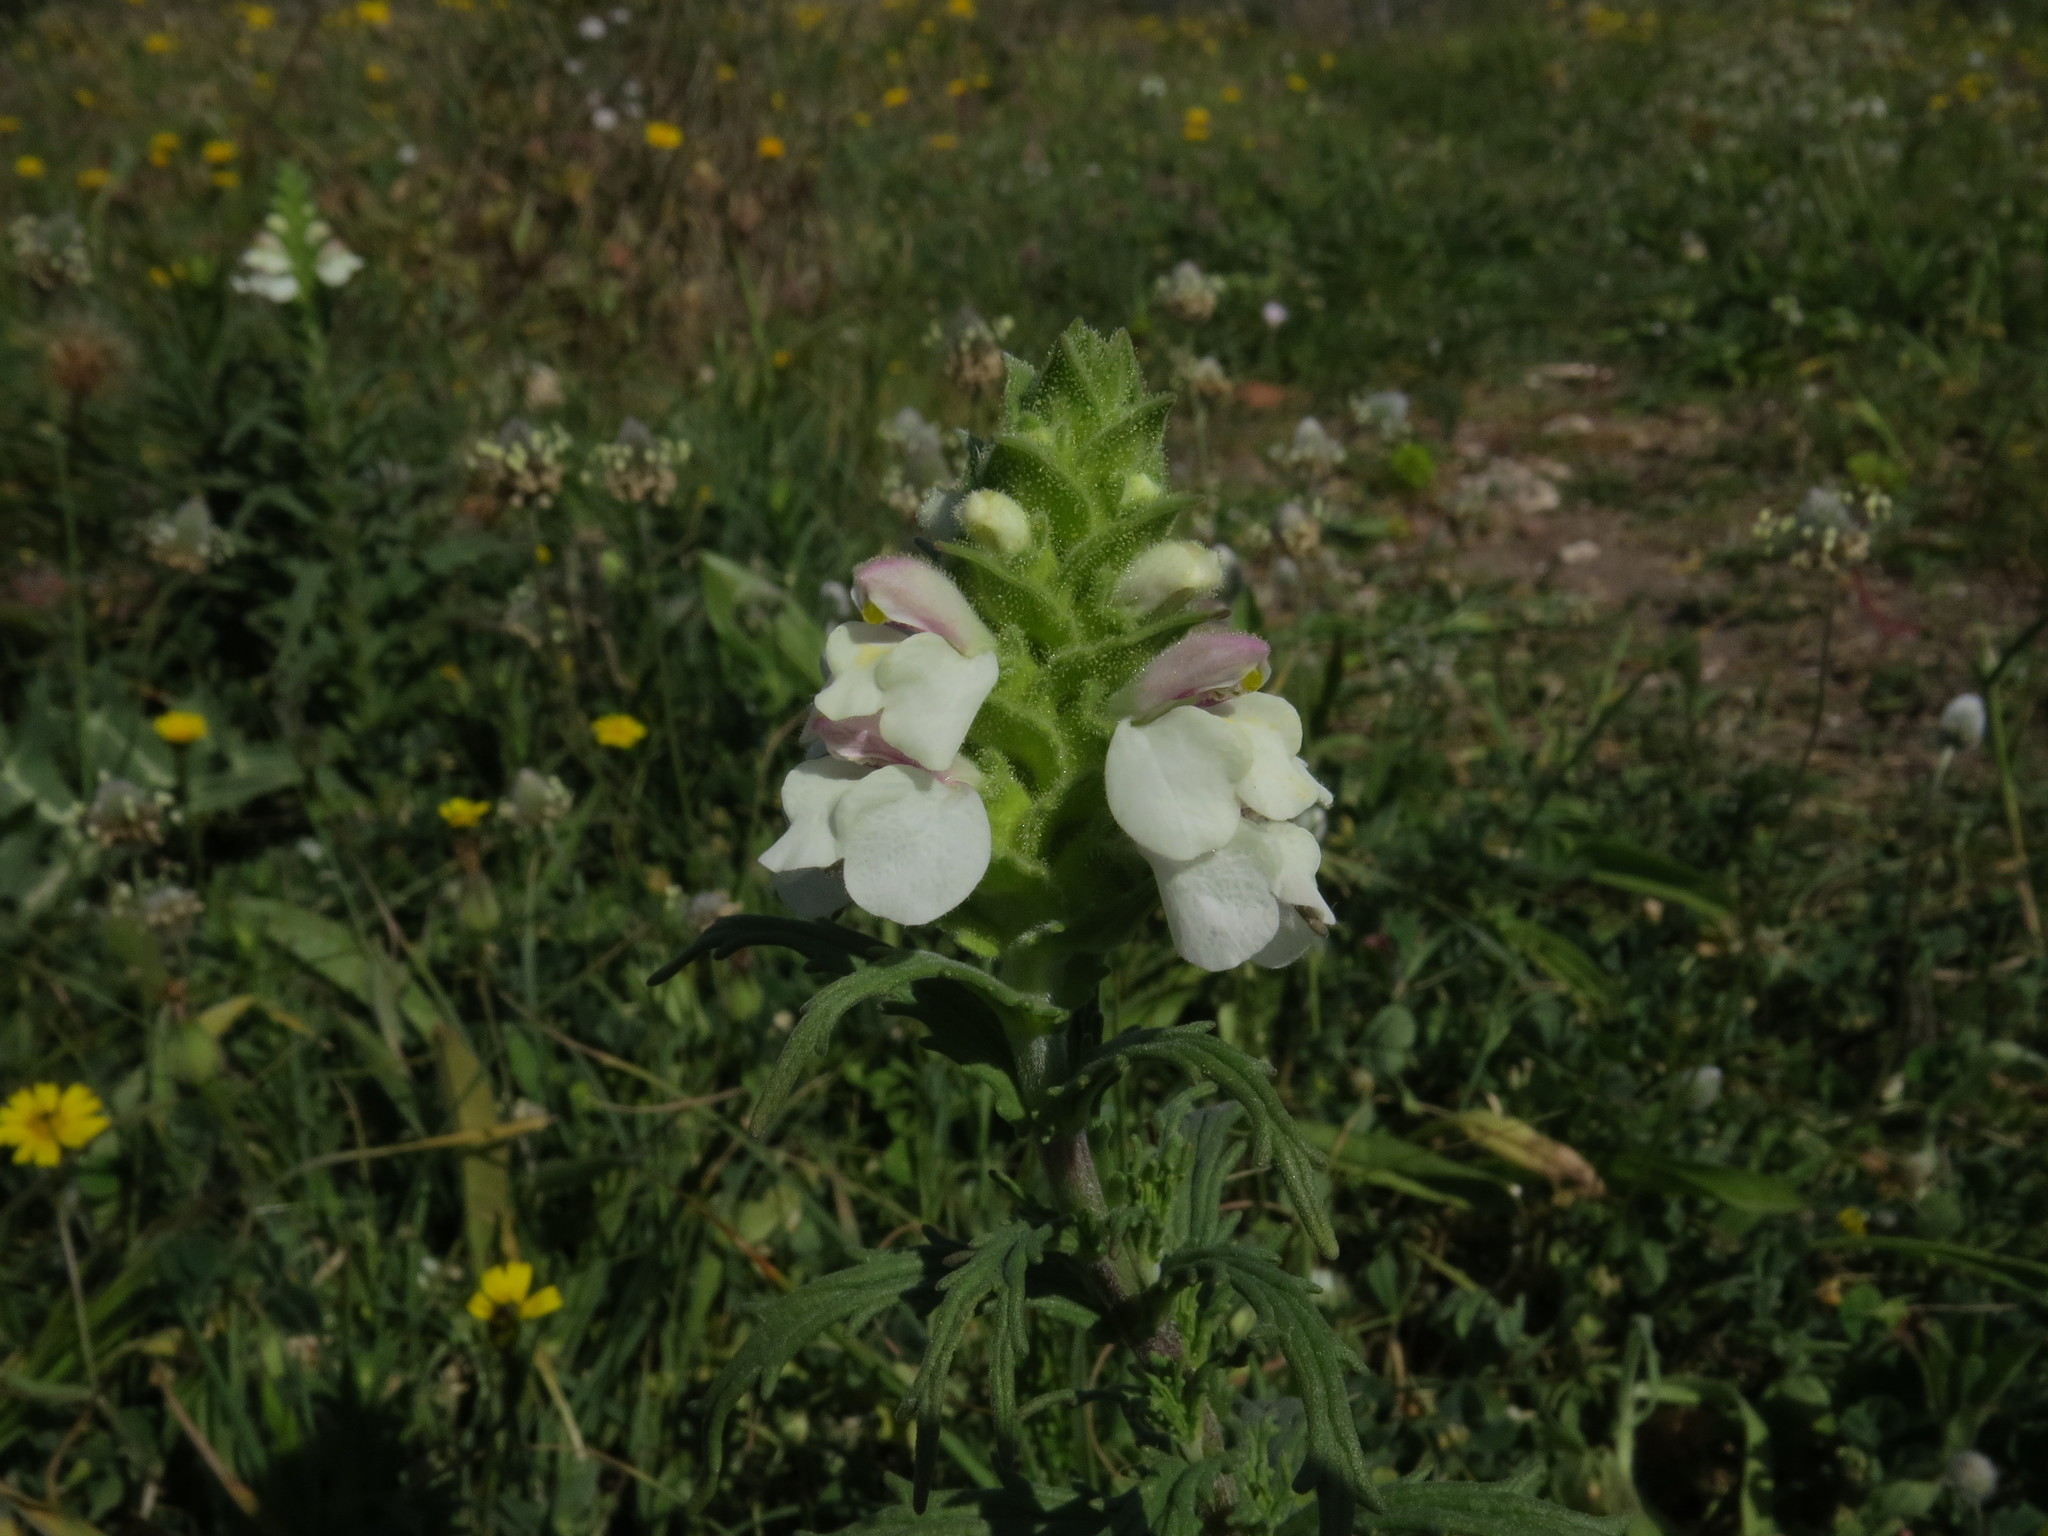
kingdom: Plantae
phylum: Tracheophyta
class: Magnoliopsida
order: Lamiales
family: Orobanchaceae
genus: Bellardia
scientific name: Bellardia trixago
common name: Mediterranean lineseed
